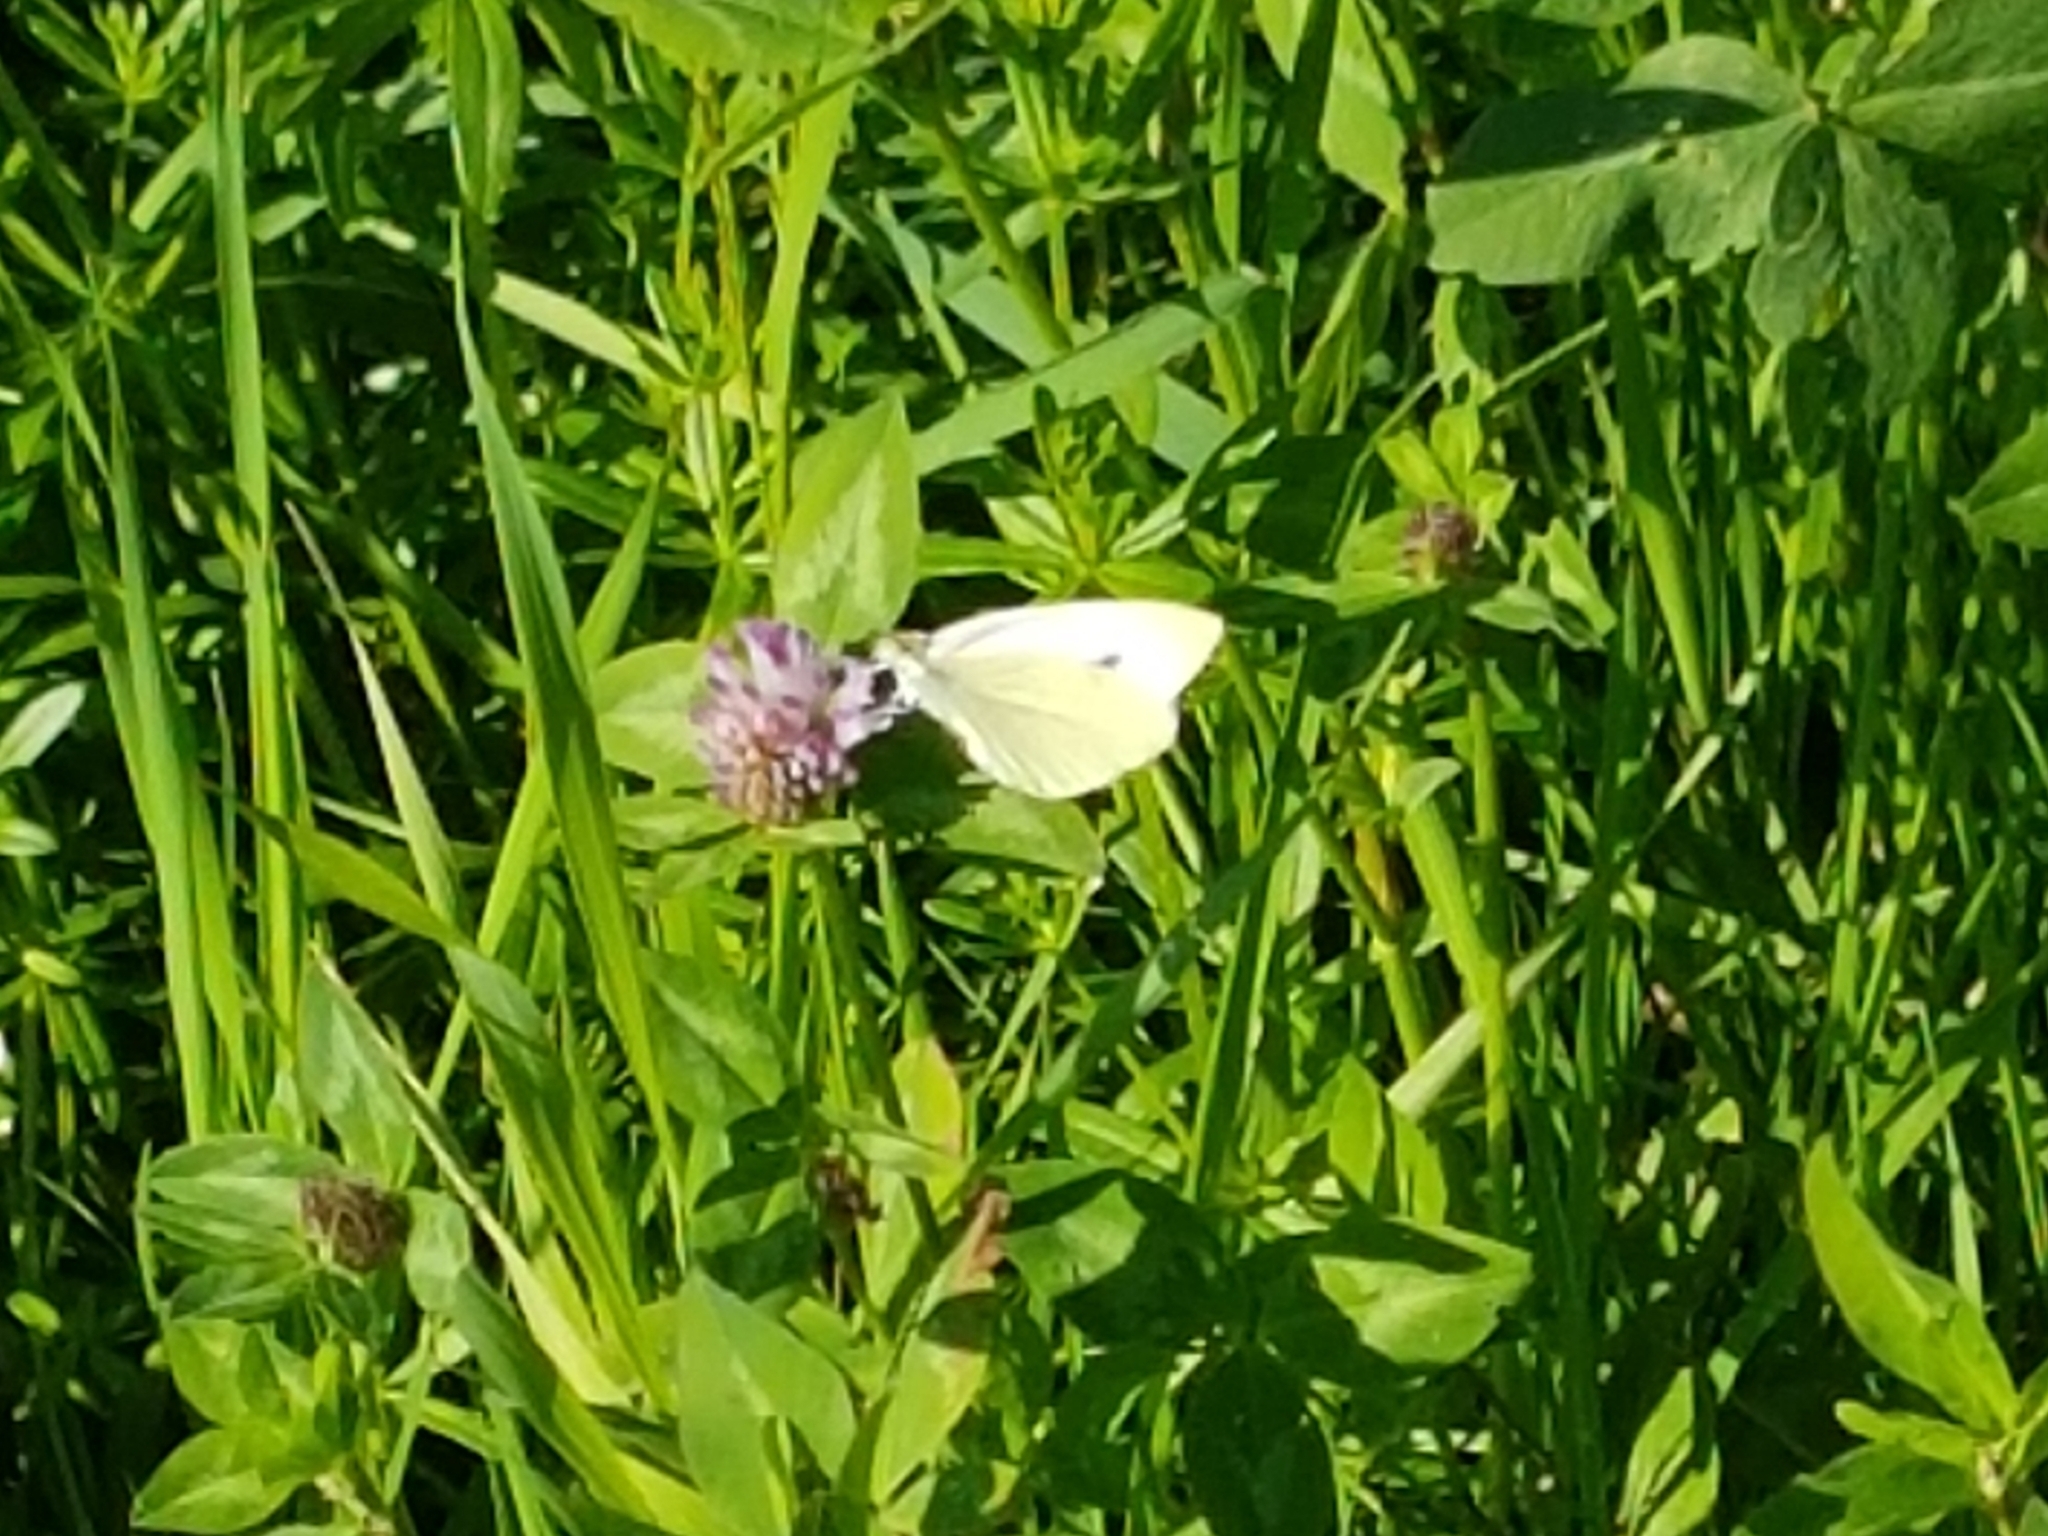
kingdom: Animalia
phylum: Arthropoda
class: Insecta
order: Lepidoptera
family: Pieridae
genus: Pieris
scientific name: Pieris rapae
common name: Small white
